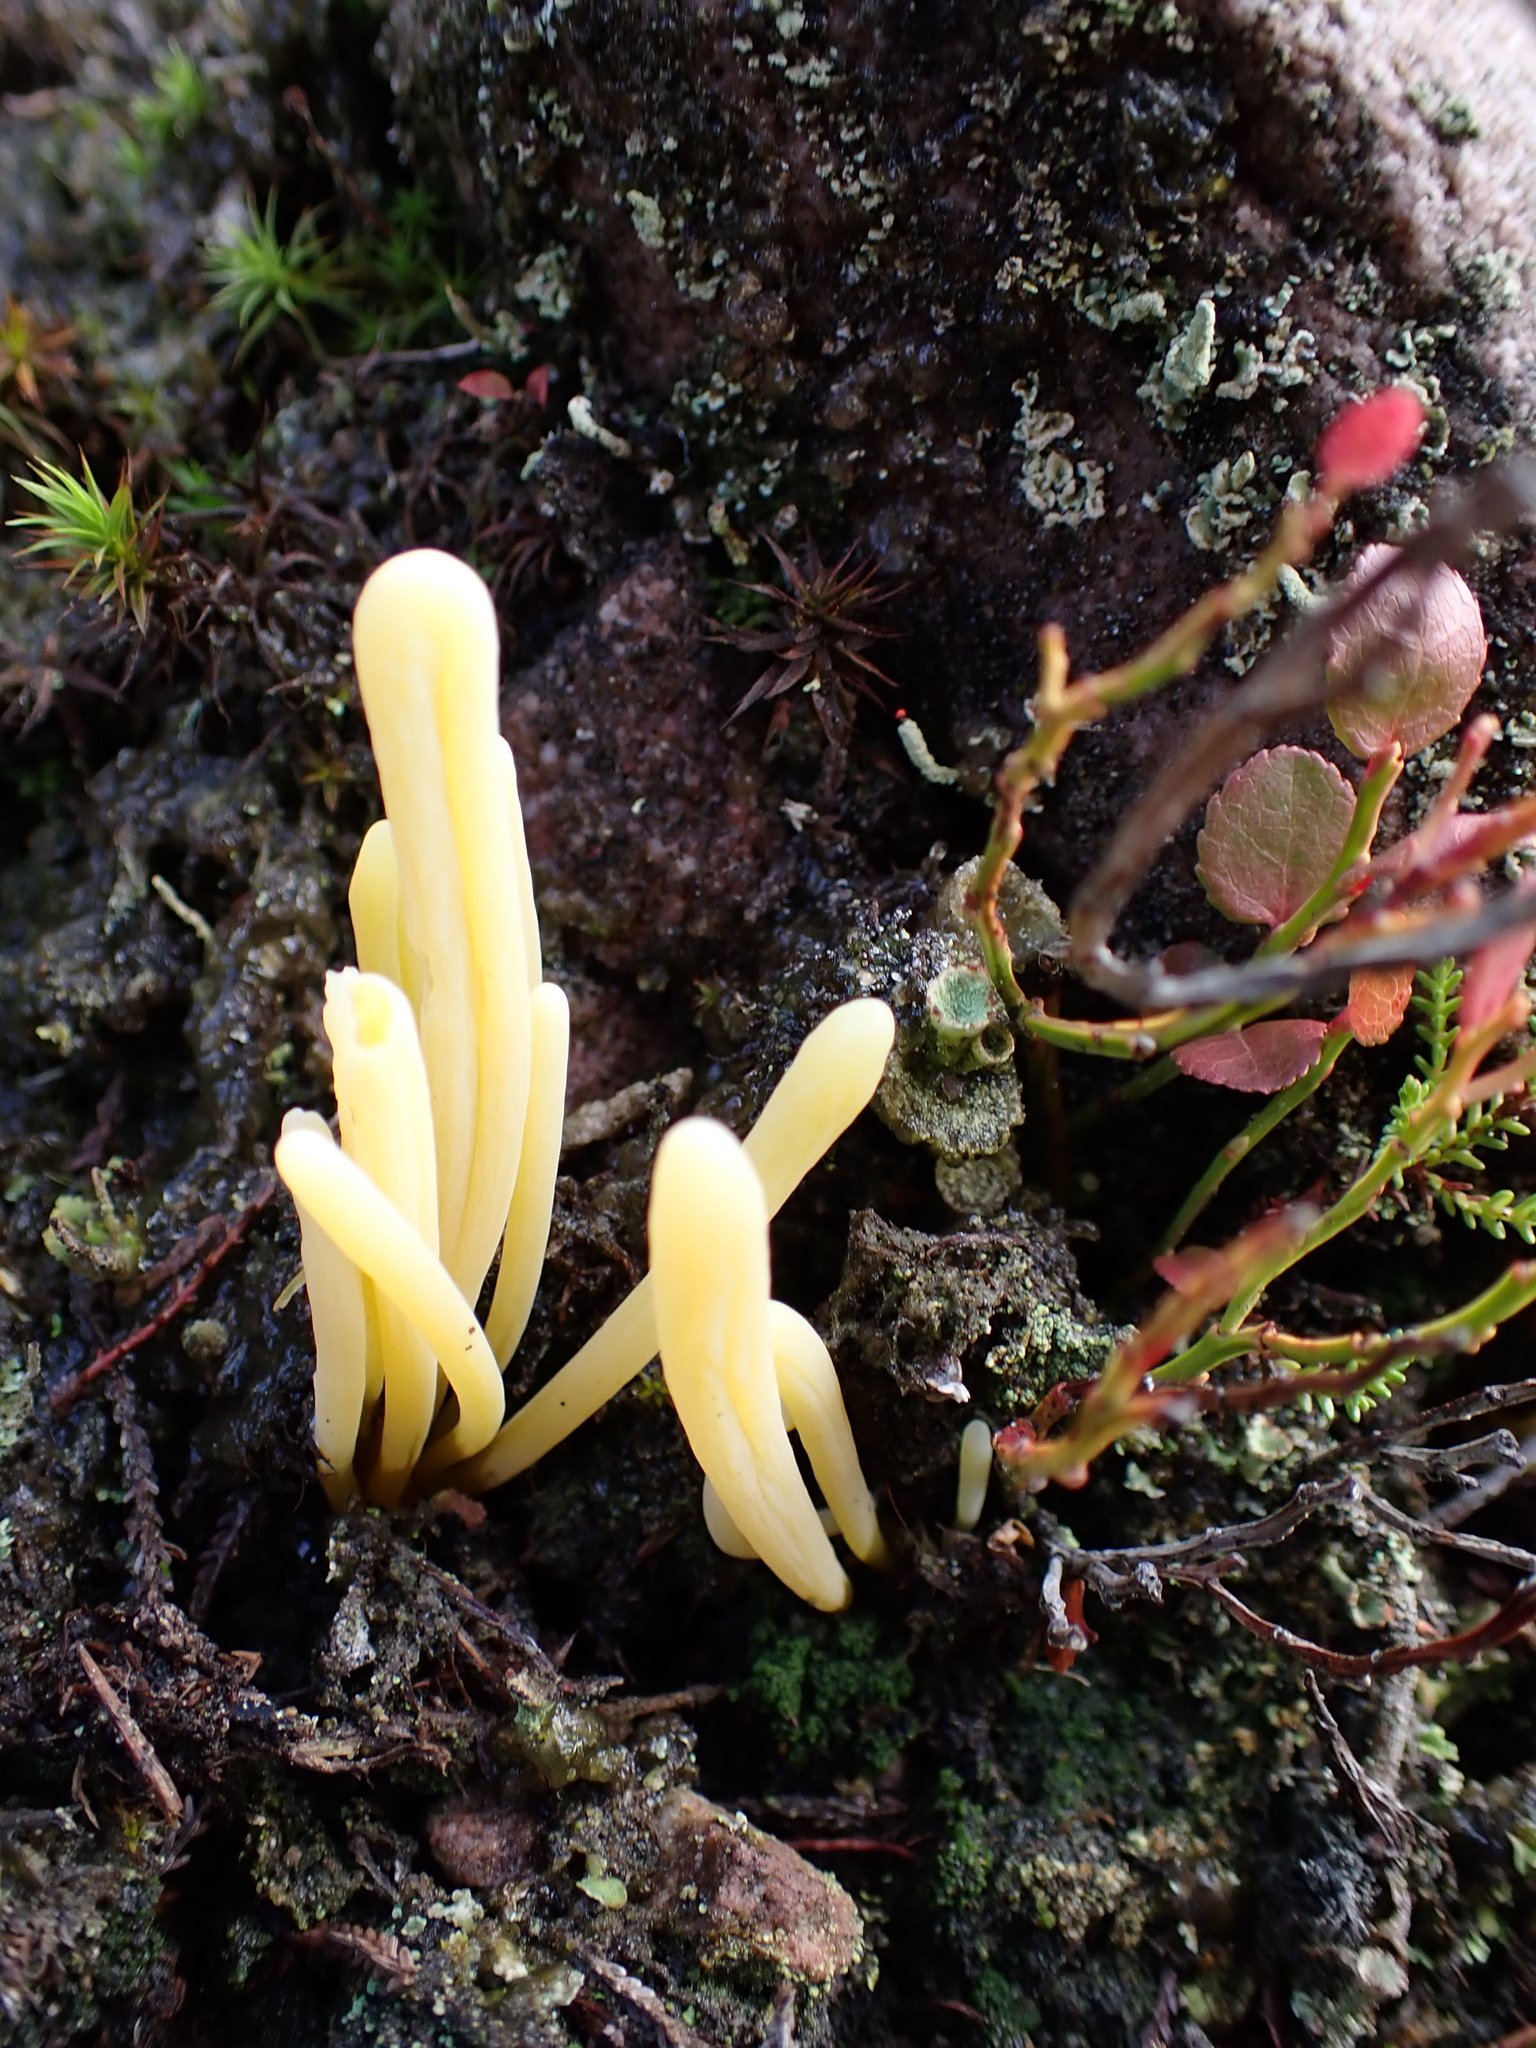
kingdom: Fungi
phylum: Basidiomycota
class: Agaricomycetes
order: Agaricales
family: Clavariaceae
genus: Clavaria
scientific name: Clavaria argillacea
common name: Moor club
